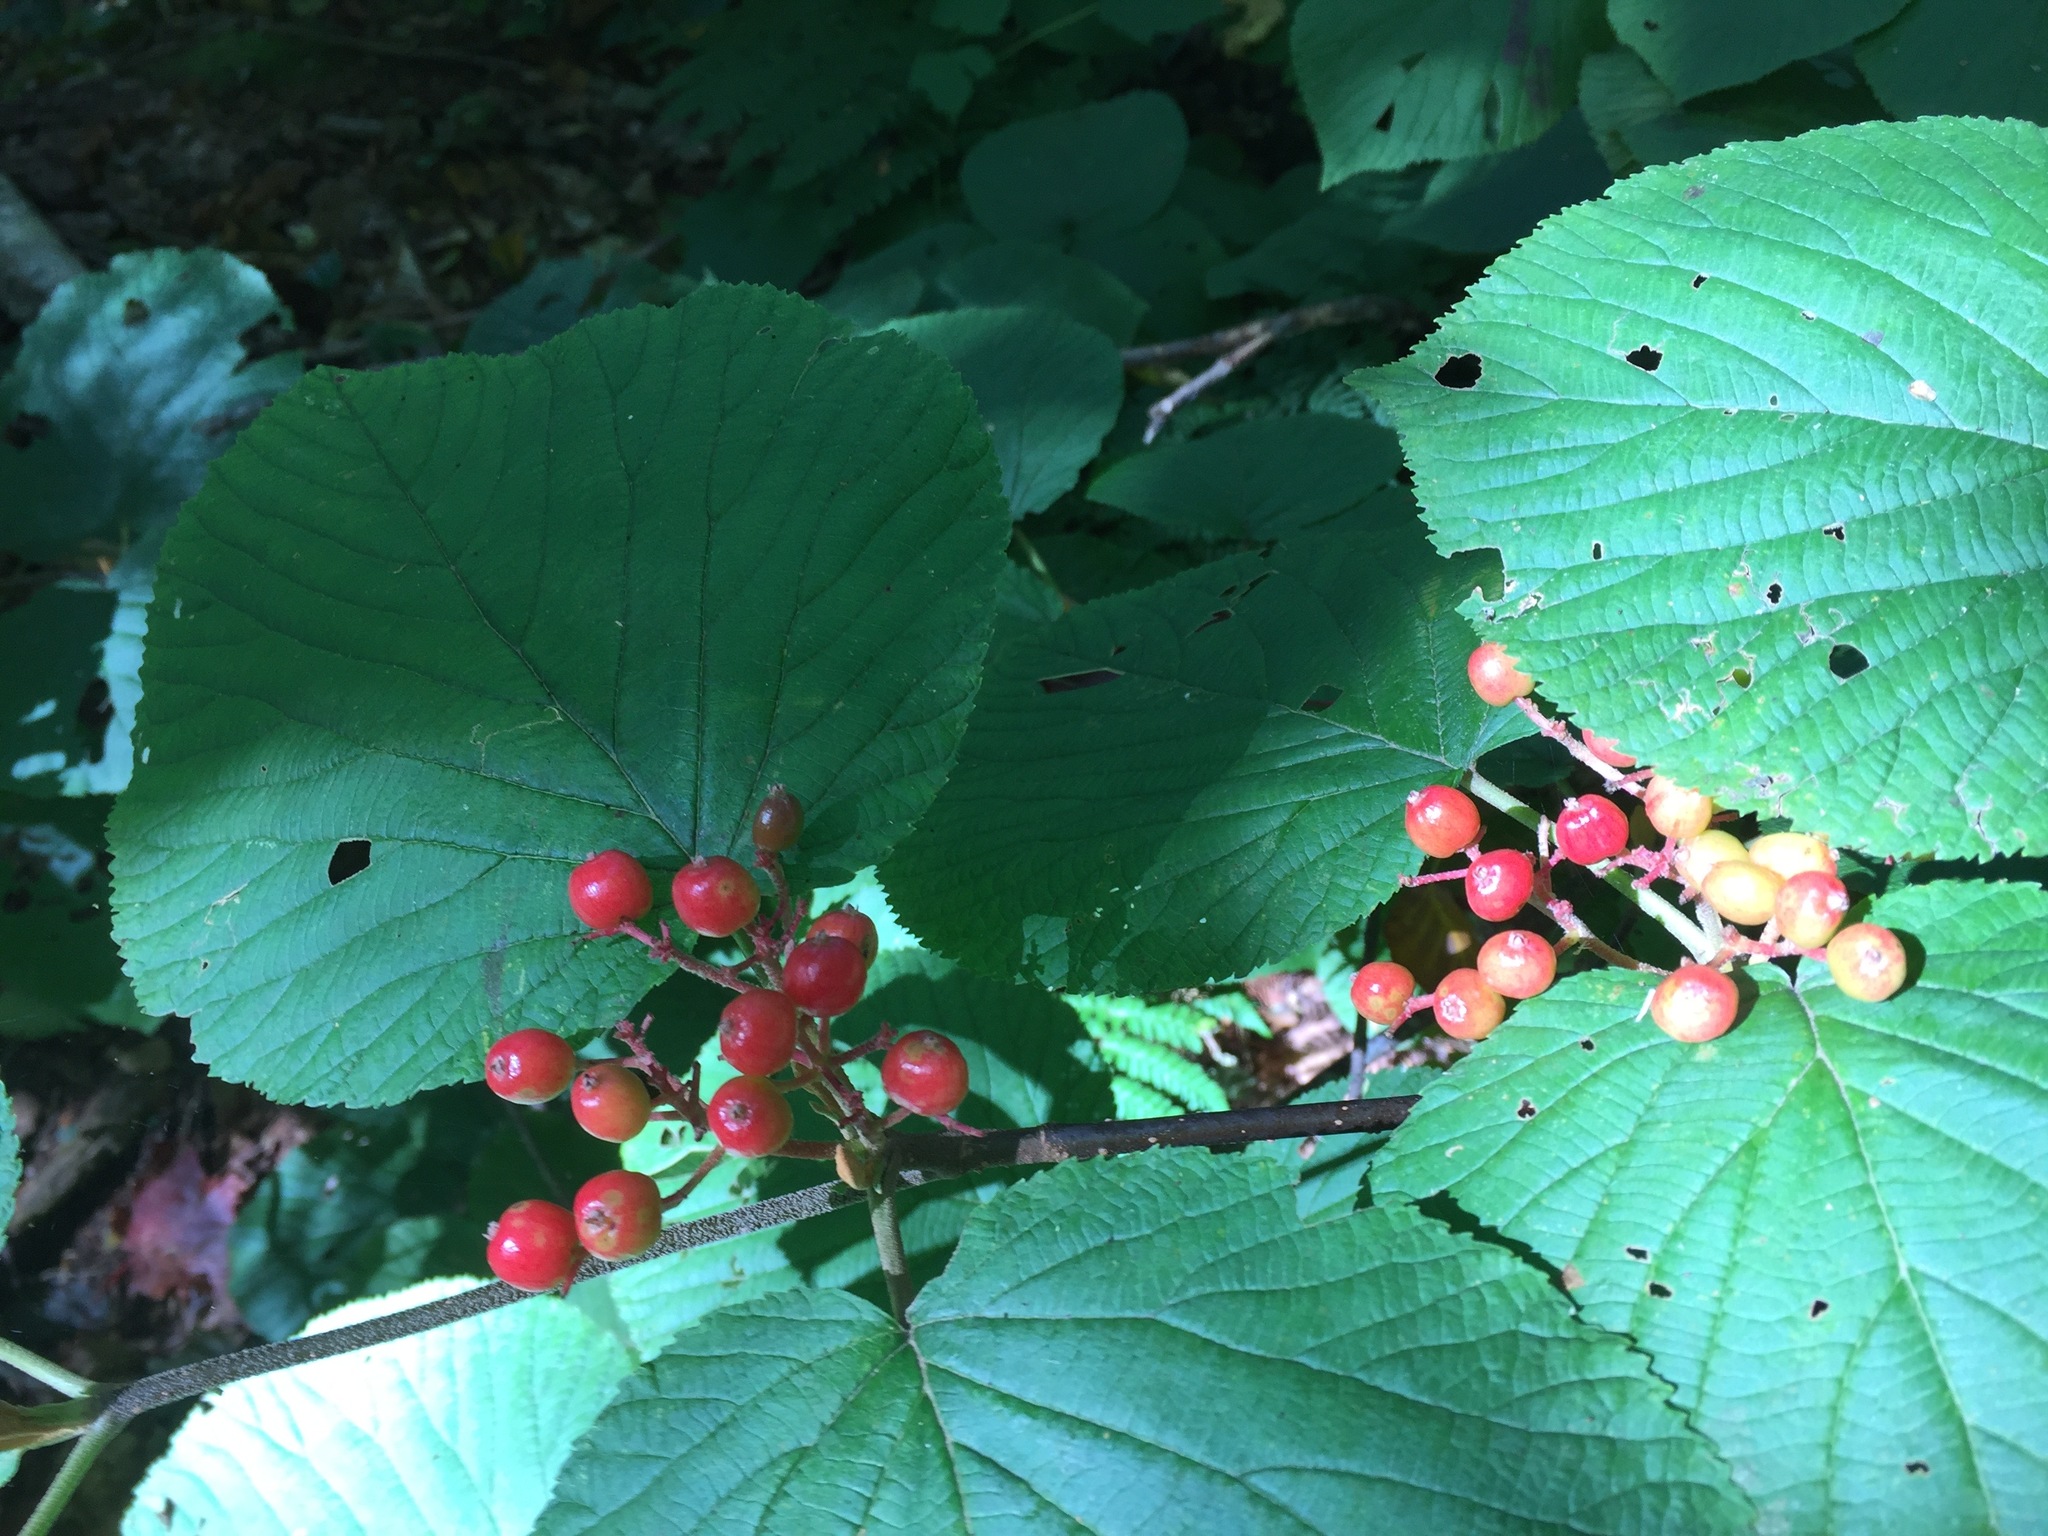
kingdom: Plantae
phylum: Tracheophyta
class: Magnoliopsida
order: Dipsacales
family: Viburnaceae
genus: Viburnum
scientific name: Viburnum lantanoides
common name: Hobblebush
